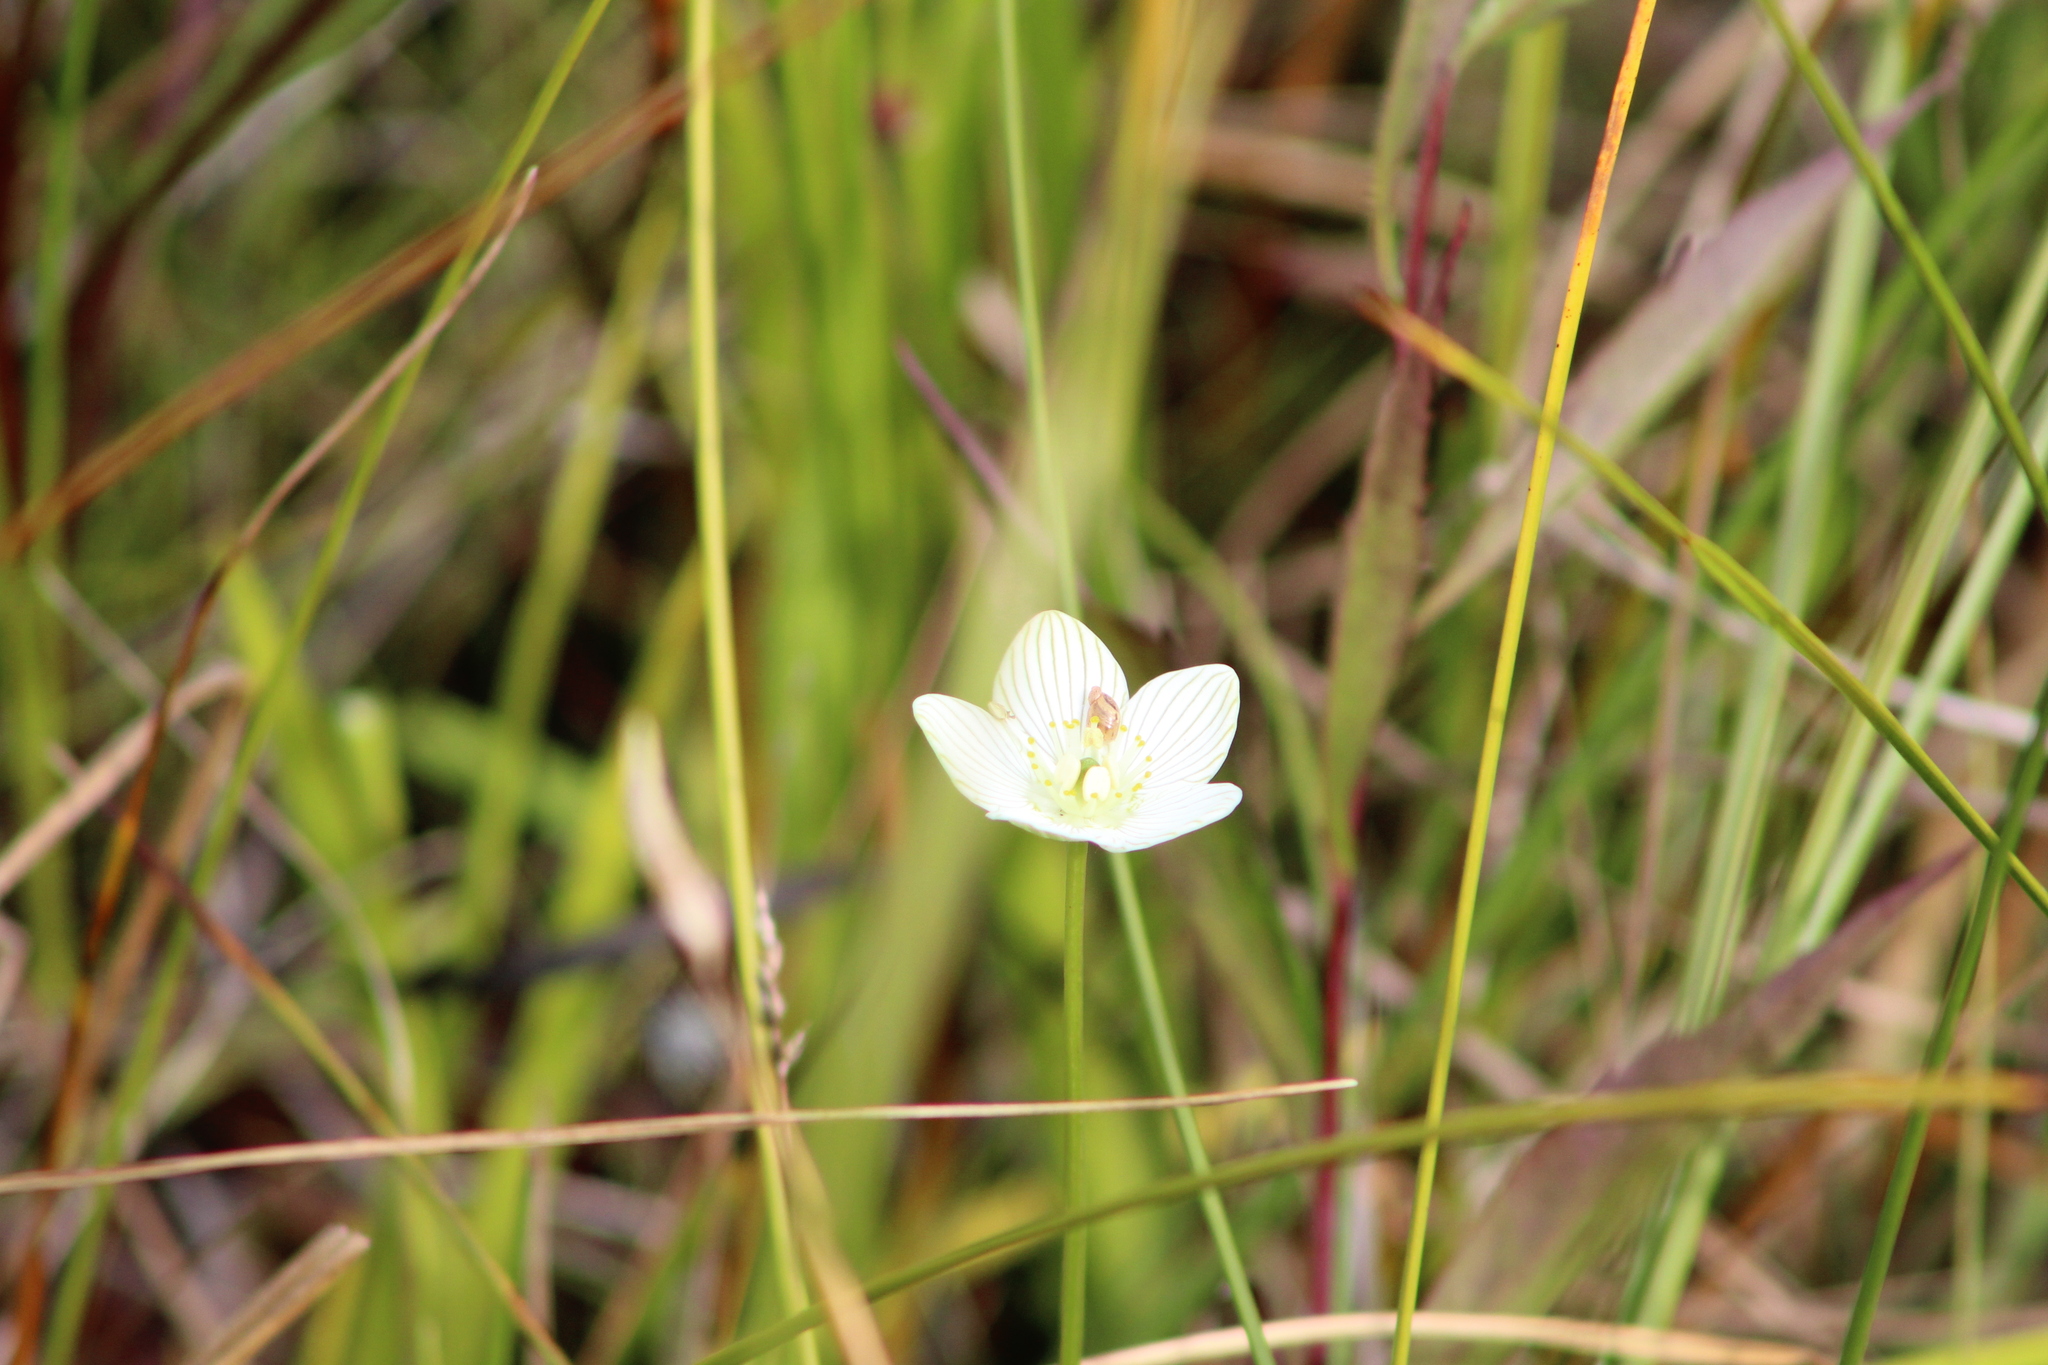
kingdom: Plantae
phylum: Tracheophyta
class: Magnoliopsida
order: Celastrales
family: Parnassiaceae
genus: Parnassia
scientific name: Parnassia glauca
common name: American grass-of-parnassus
